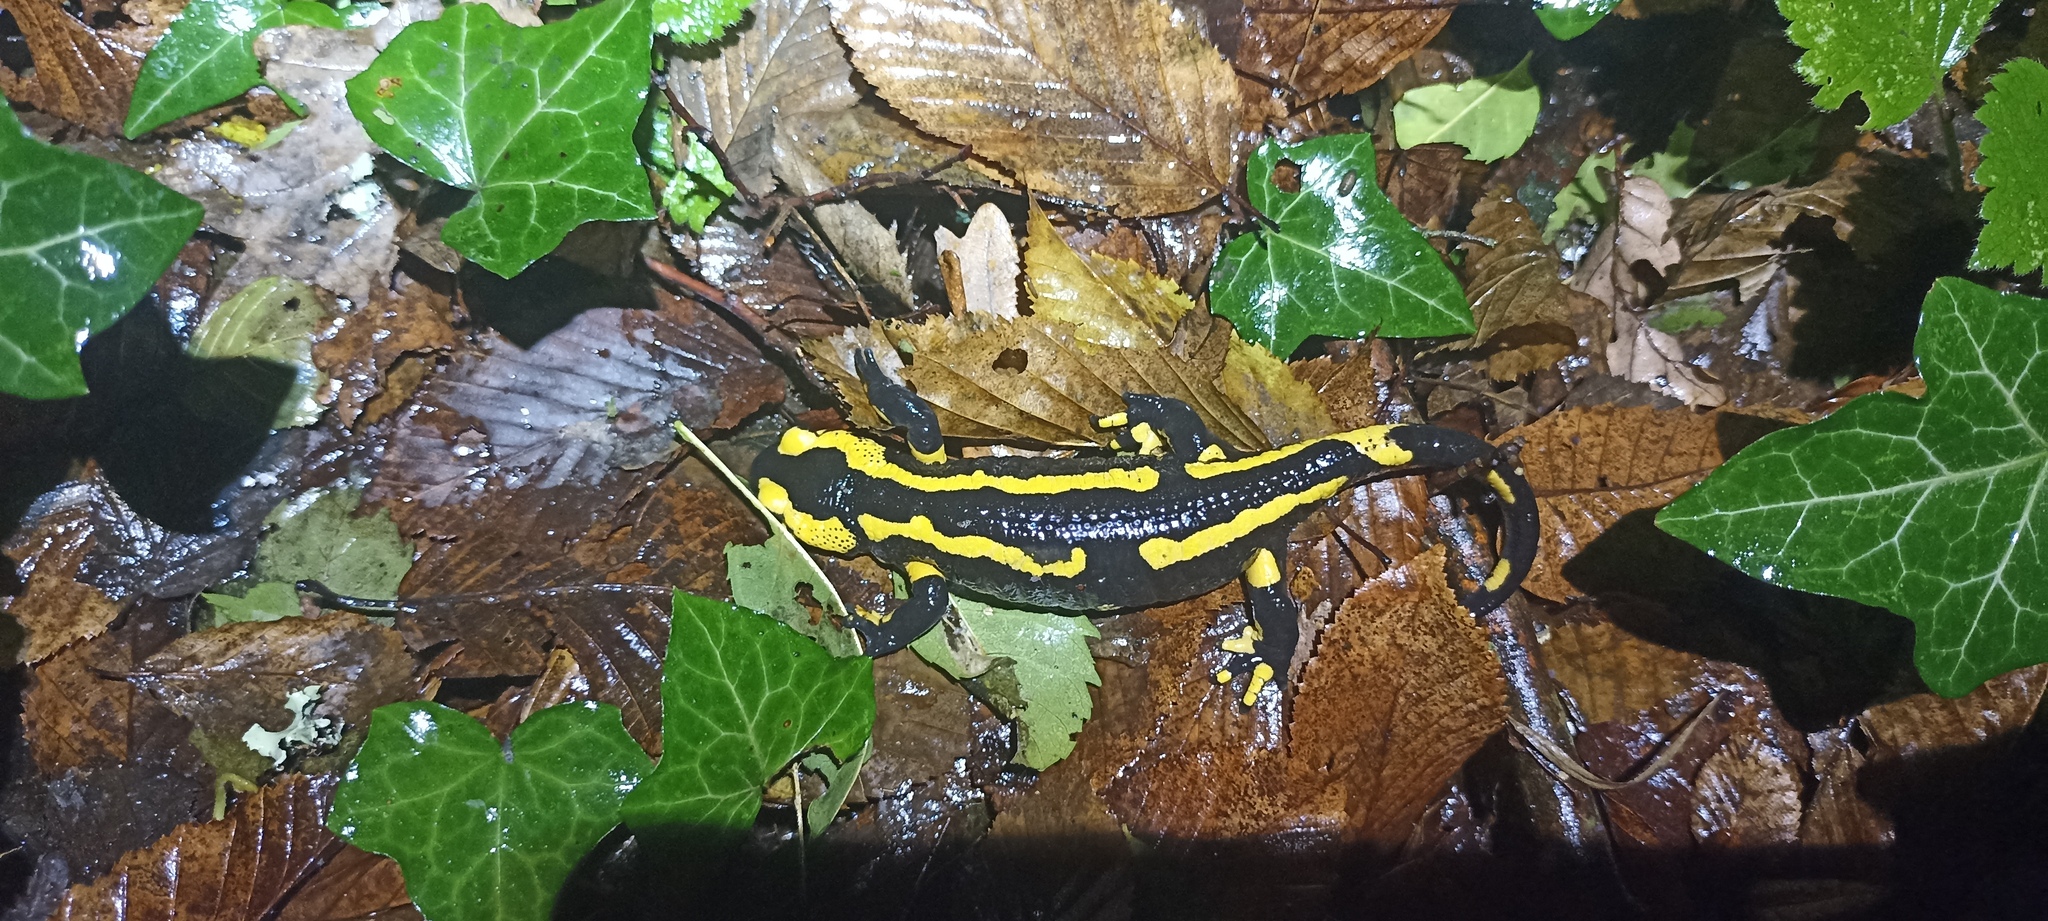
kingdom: Animalia
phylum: Chordata
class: Amphibia
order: Caudata
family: Salamandridae
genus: Salamandra
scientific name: Salamandra salamandra
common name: Fire salamander
